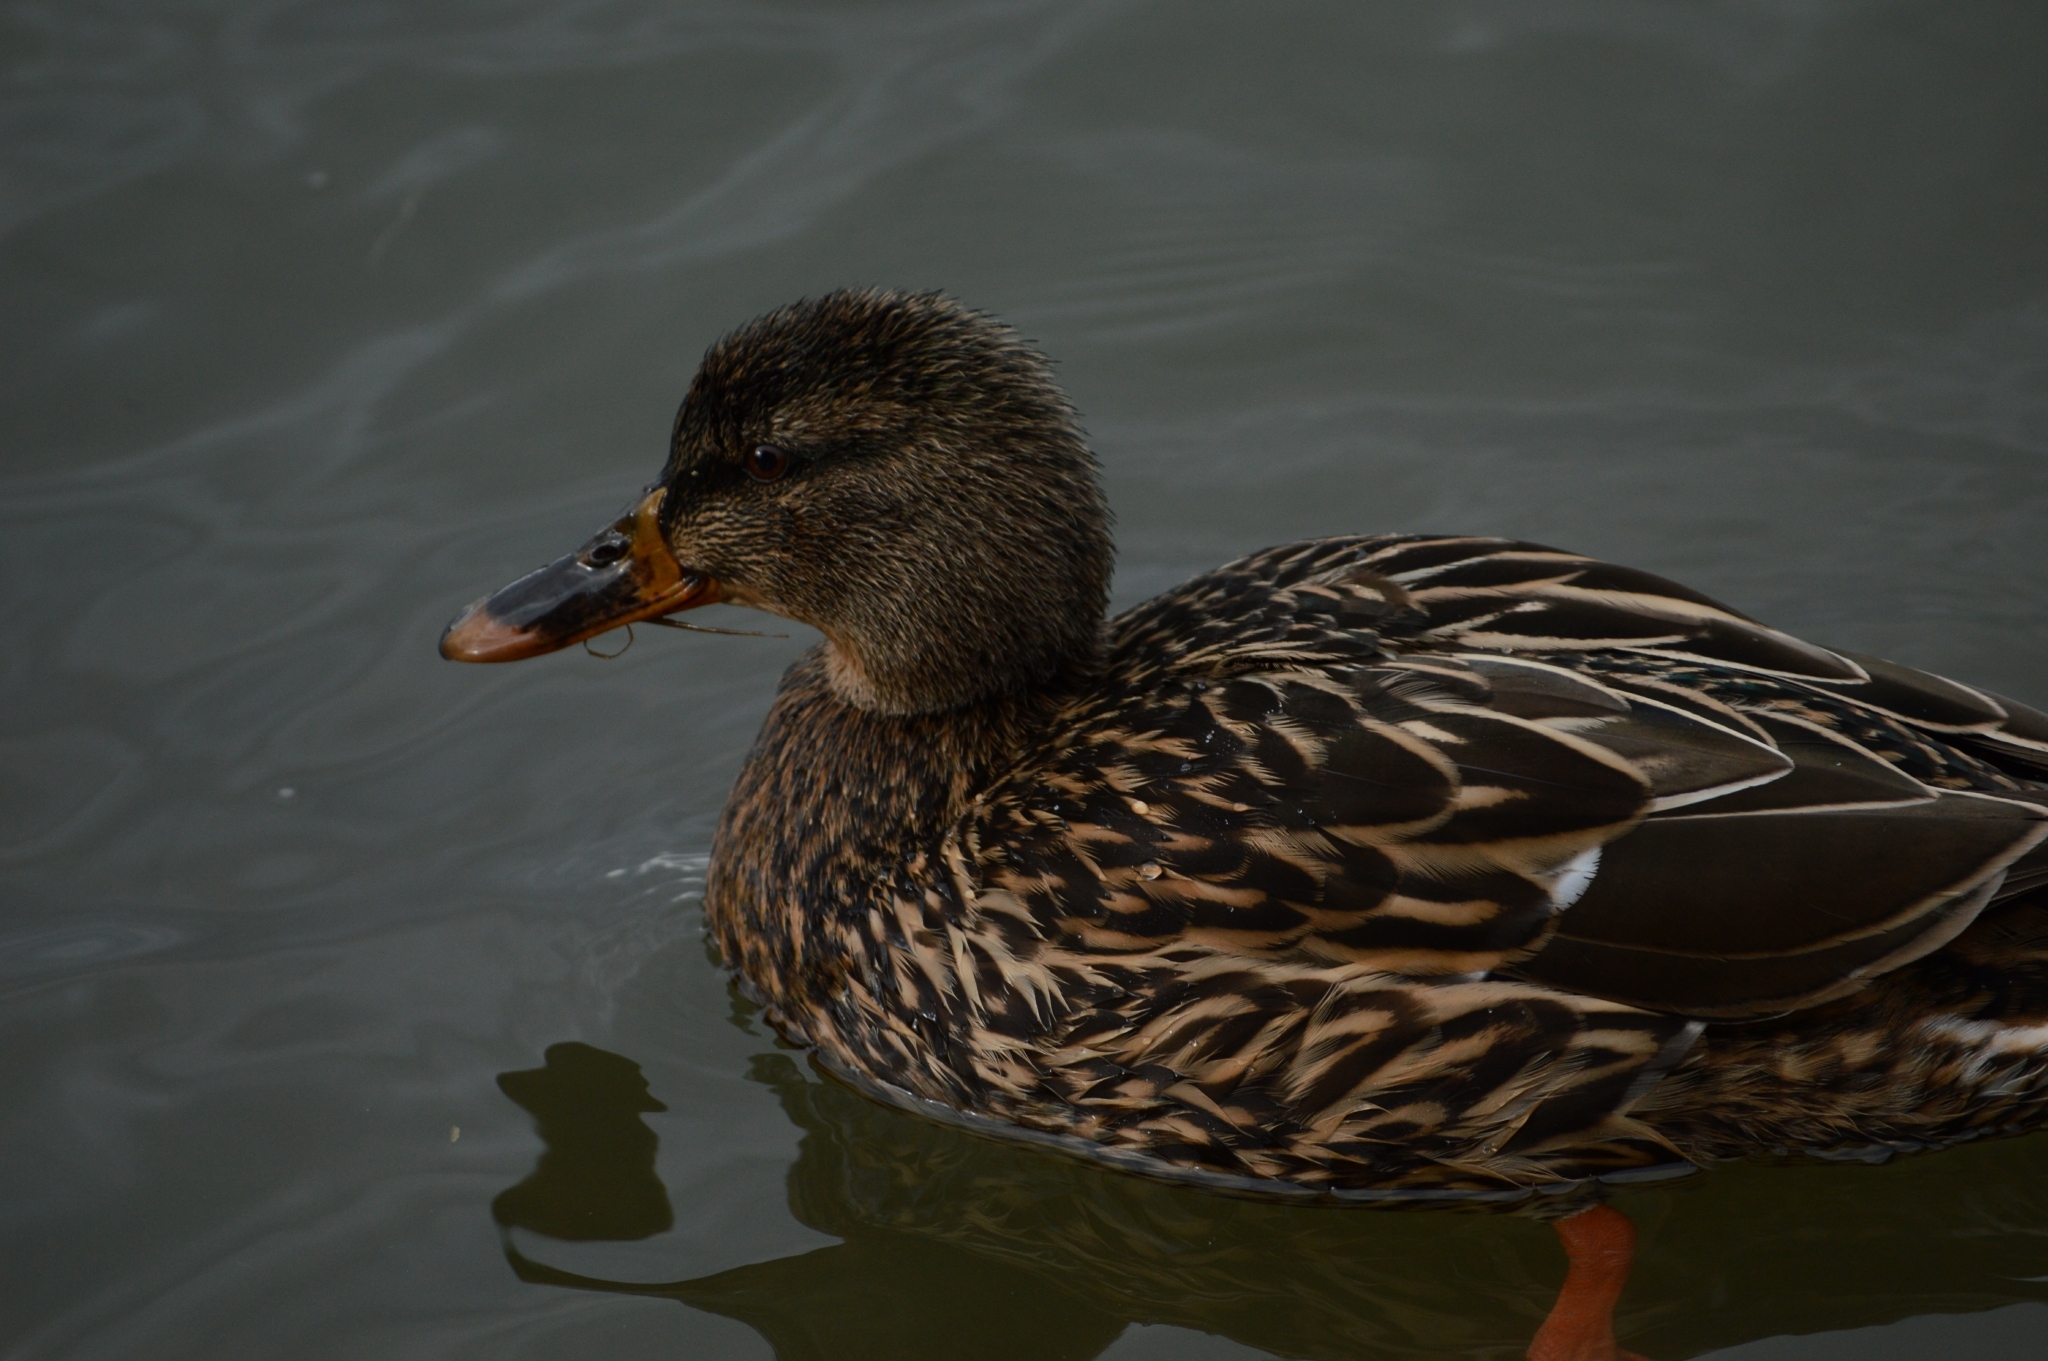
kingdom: Animalia
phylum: Chordata
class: Aves
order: Anseriformes
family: Anatidae
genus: Anas
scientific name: Anas platyrhynchos
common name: Mallard
